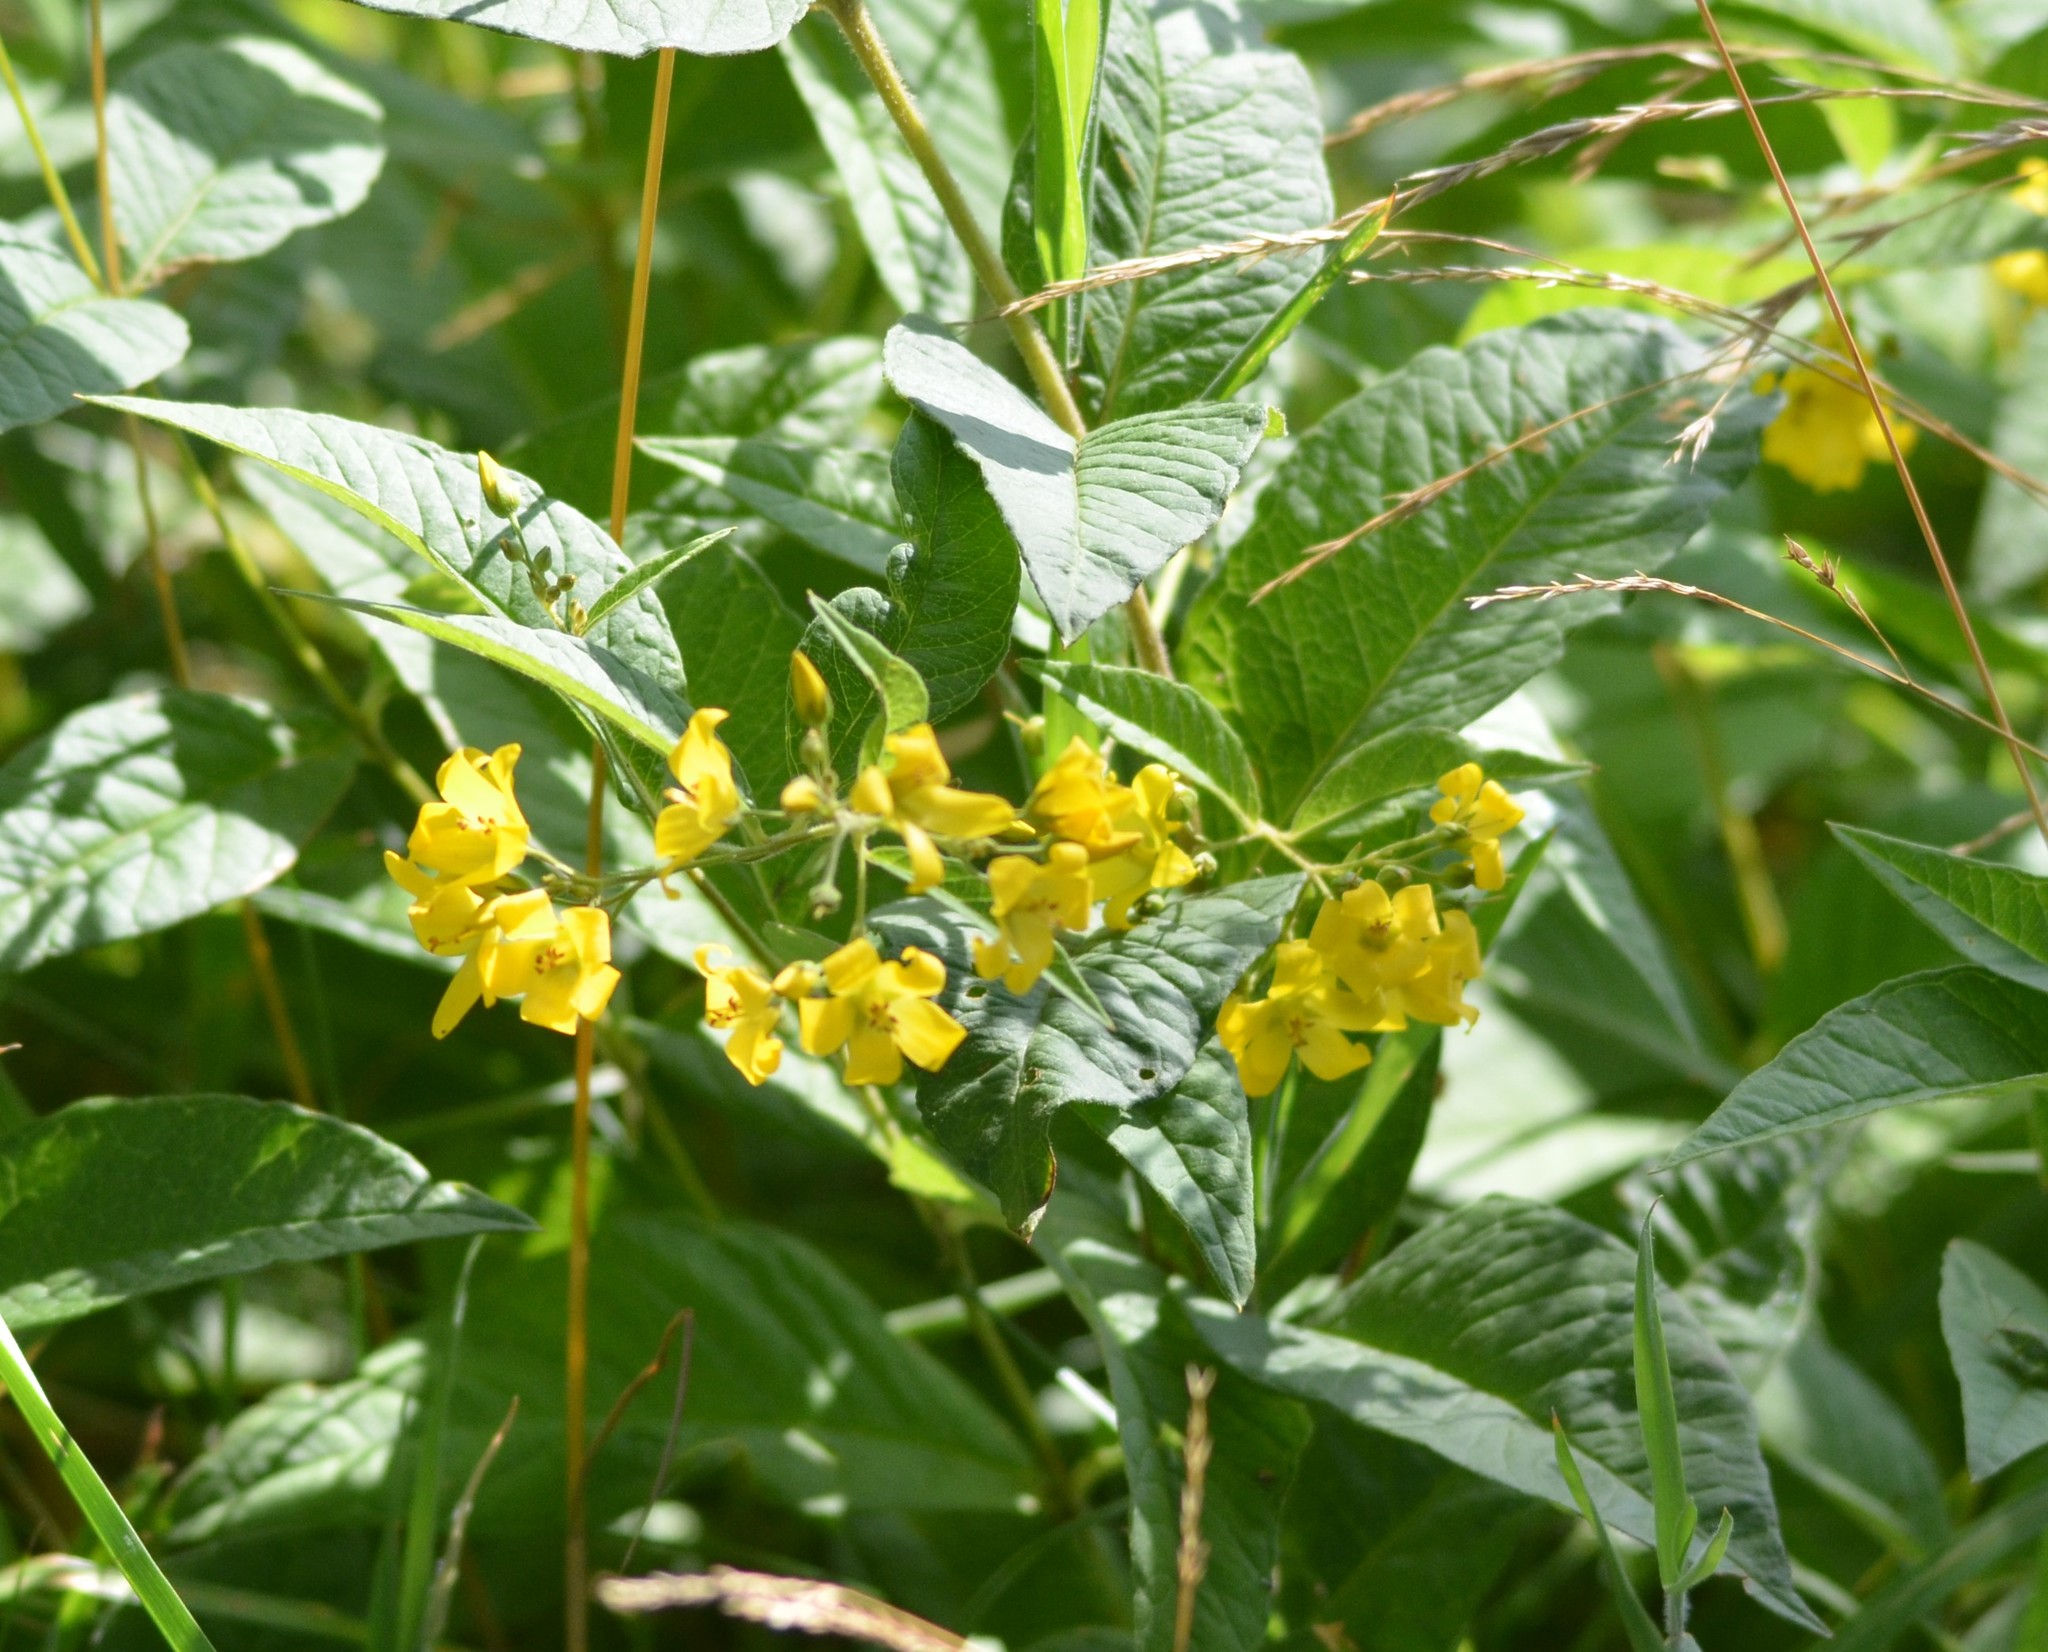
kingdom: Plantae
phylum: Tracheophyta
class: Magnoliopsida
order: Ericales
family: Primulaceae
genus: Lysimachia
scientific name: Lysimachia vulgaris
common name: Yellow loosestrife
